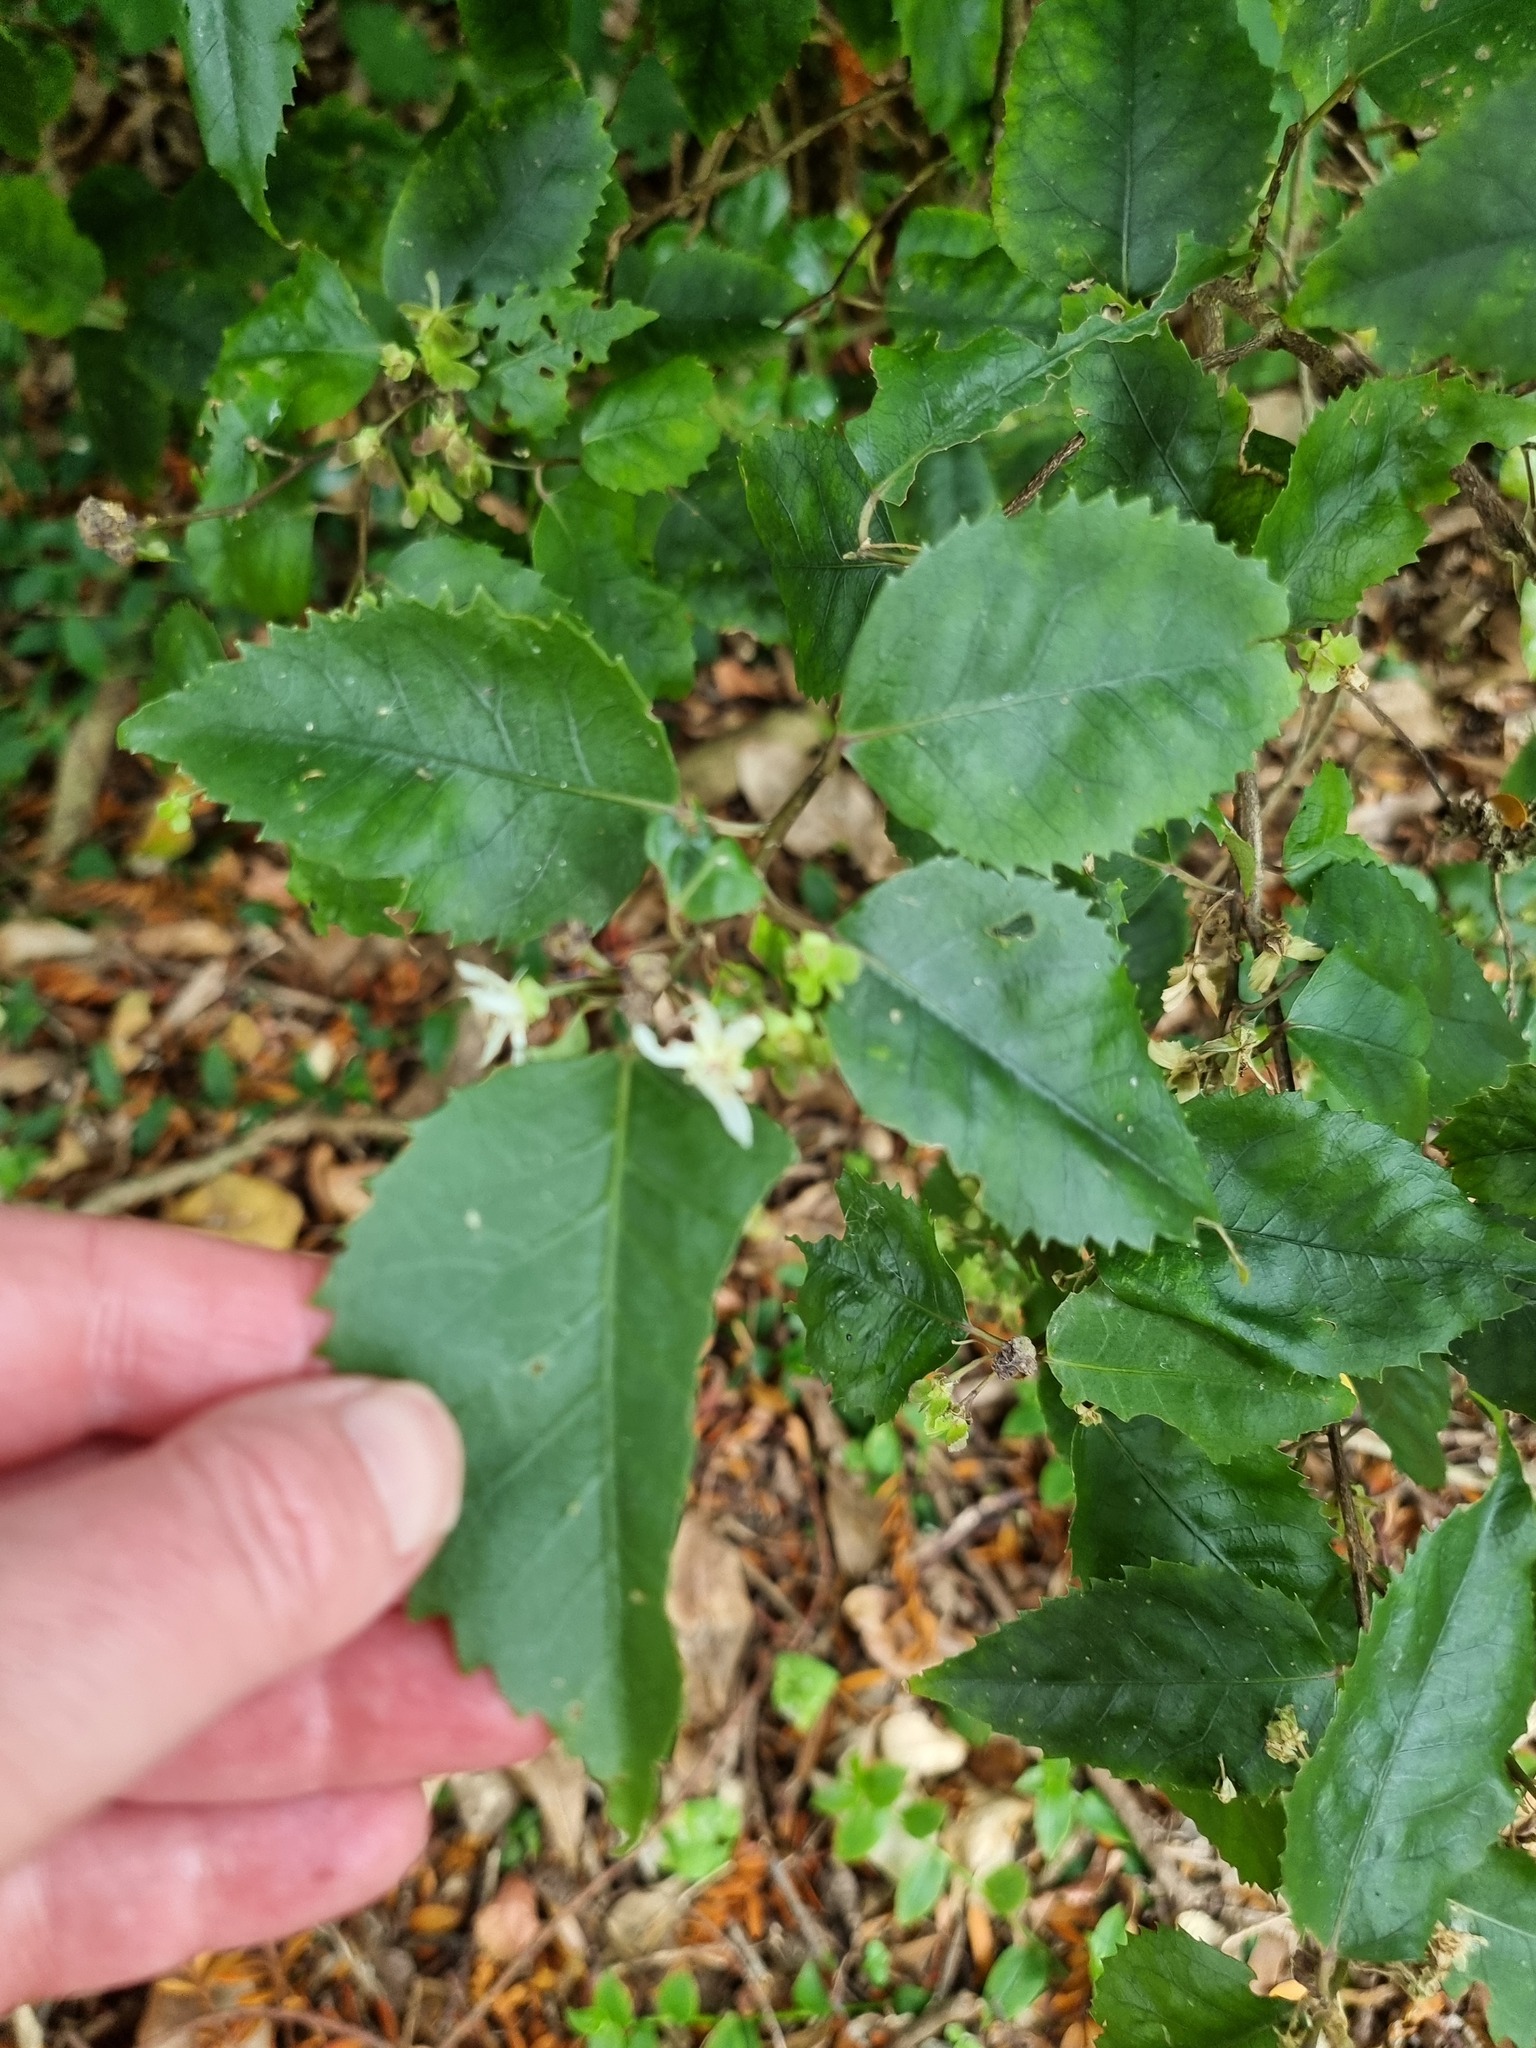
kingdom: Plantae
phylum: Tracheophyta
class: Magnoliopsida
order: Malvales
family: Malvaceae
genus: Hoheria
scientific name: Hoheria populnea
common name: Lacebark
